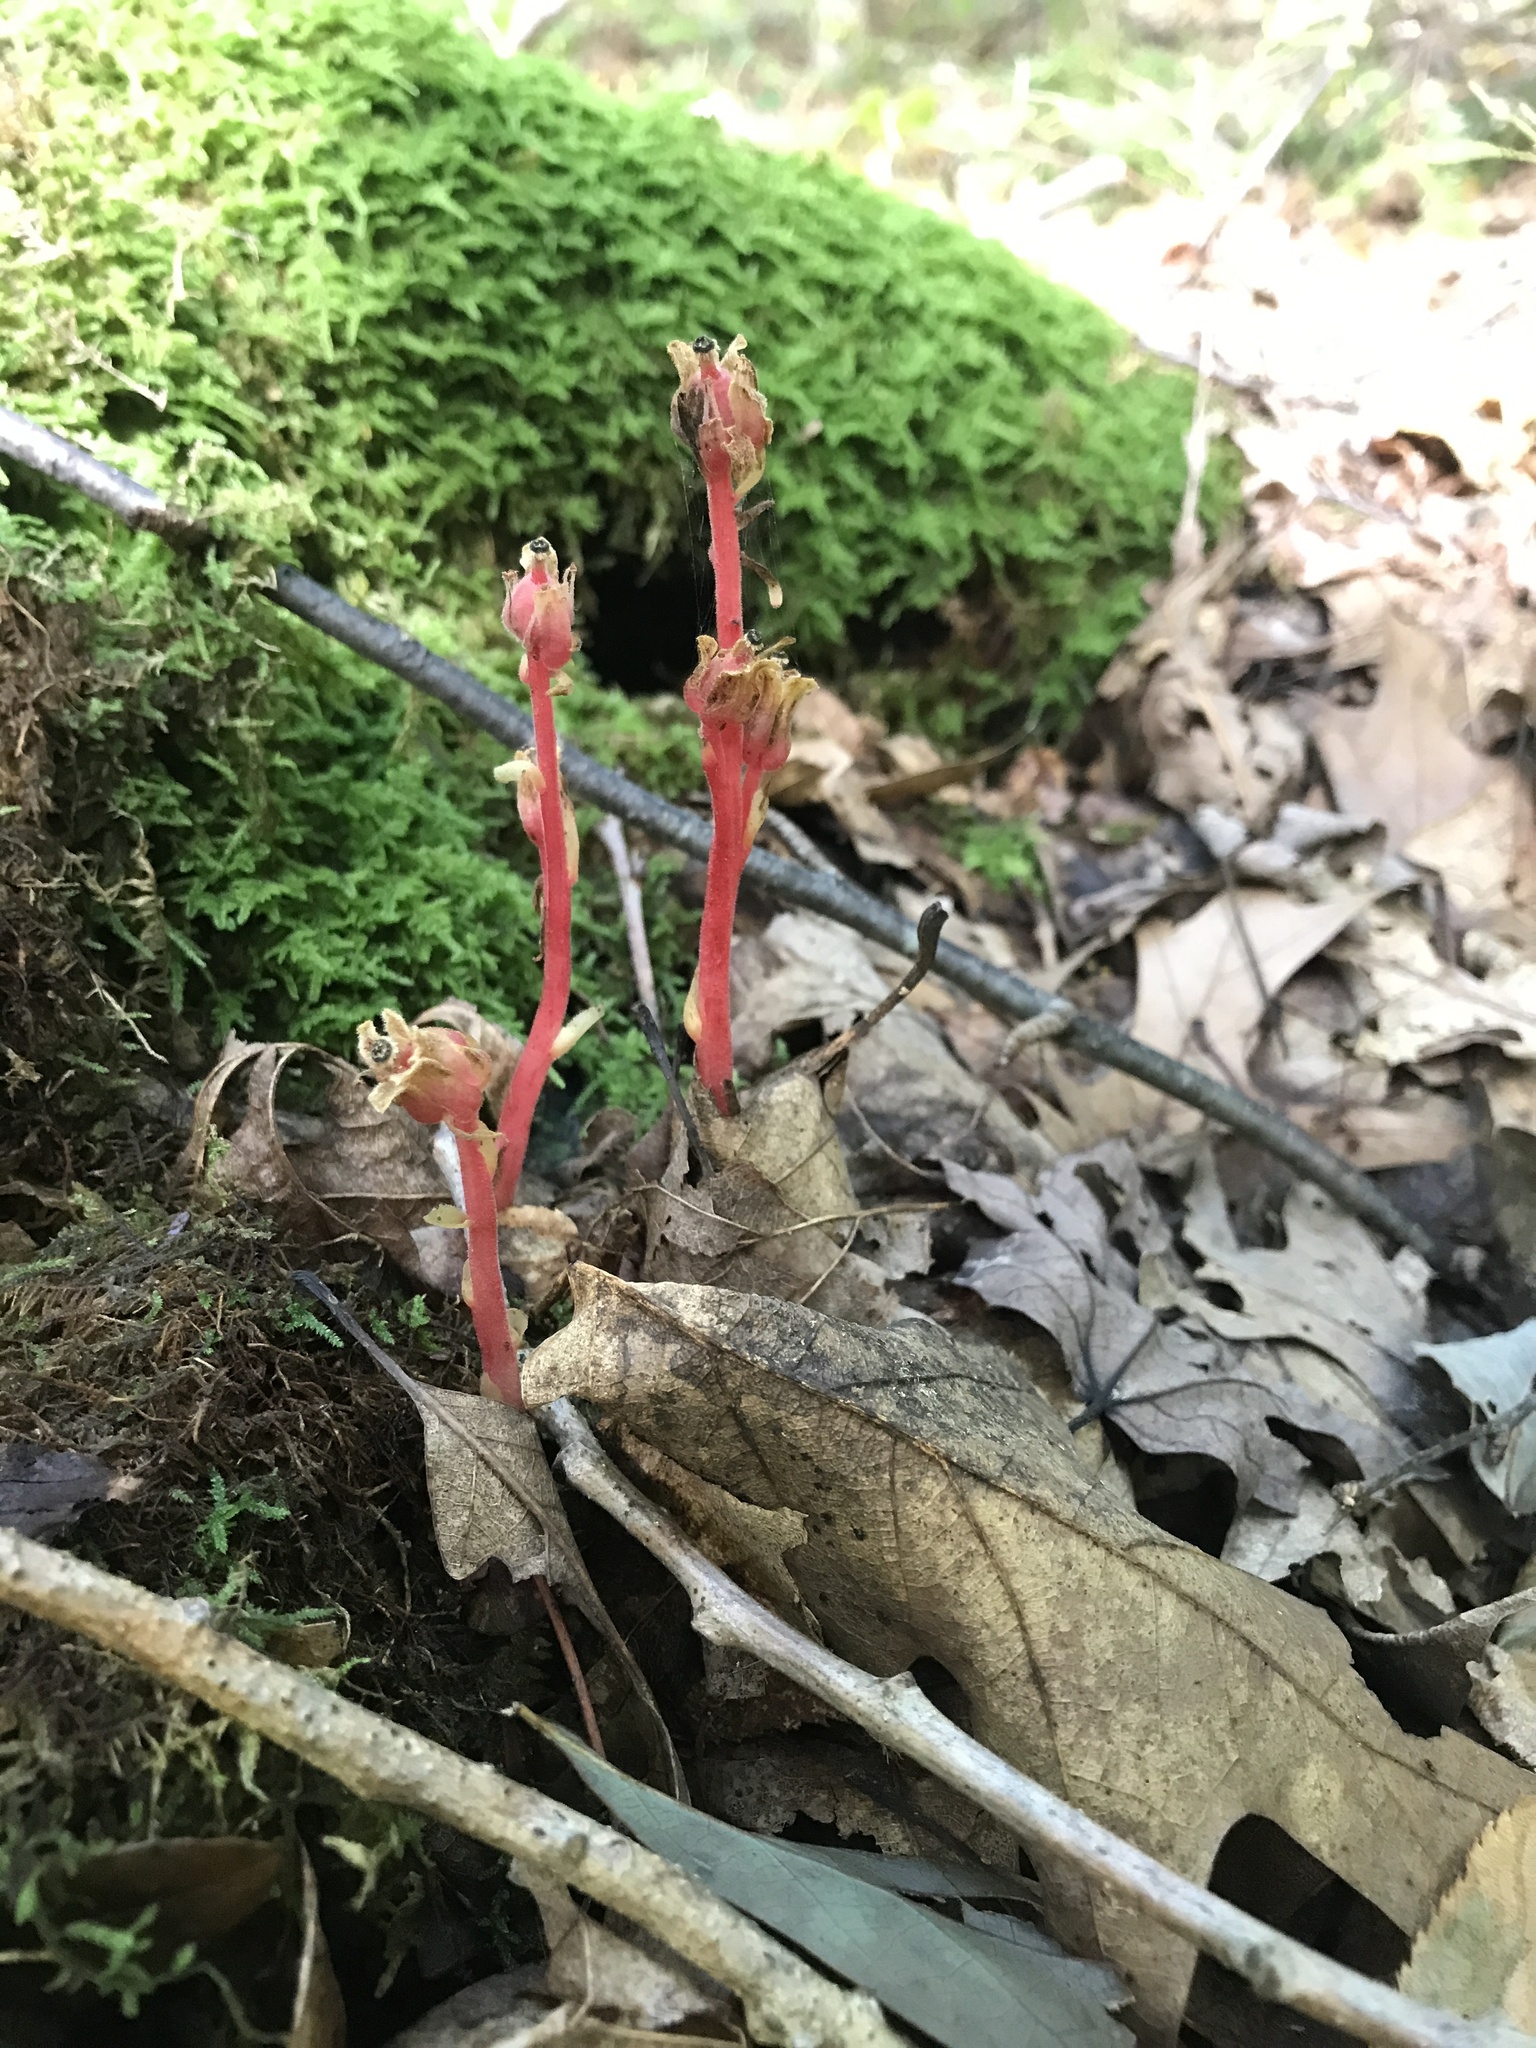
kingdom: Plantae
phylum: Tracheophyta
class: Magnoliopsida
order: Ericales
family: Ericaceae
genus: Hypopitys
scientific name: Hypopitys monotropa
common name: Yellow bird's-nest
